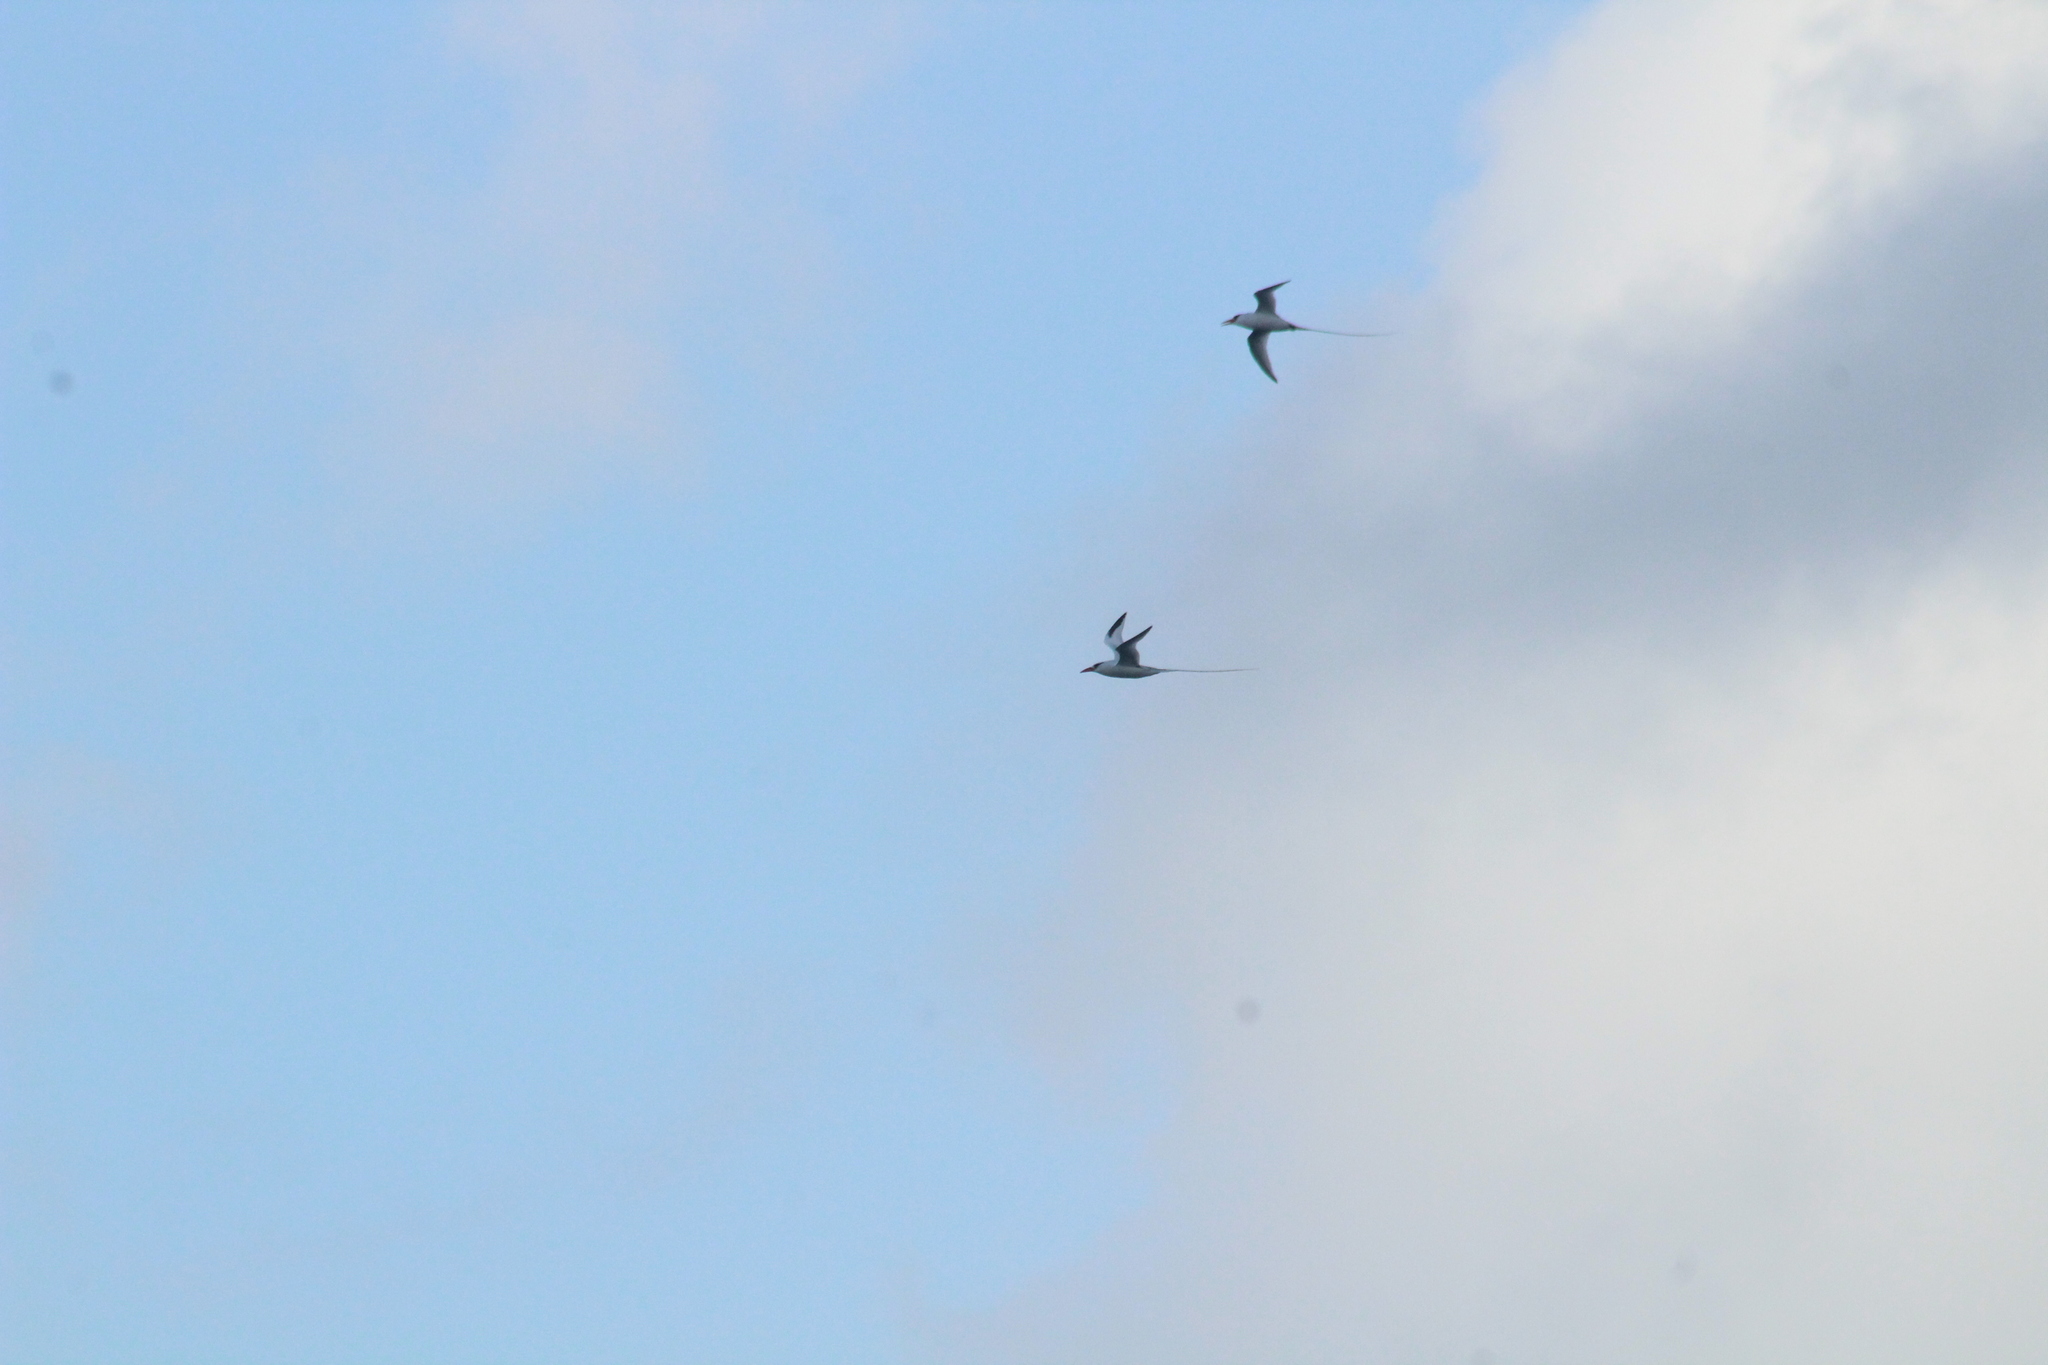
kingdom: Animalia
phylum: Chordata
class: Aves
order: Phaethontiformes
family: Phaethontidae
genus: Phaethon
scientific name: Phaethon aethereus
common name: Red-billed tropicbird
